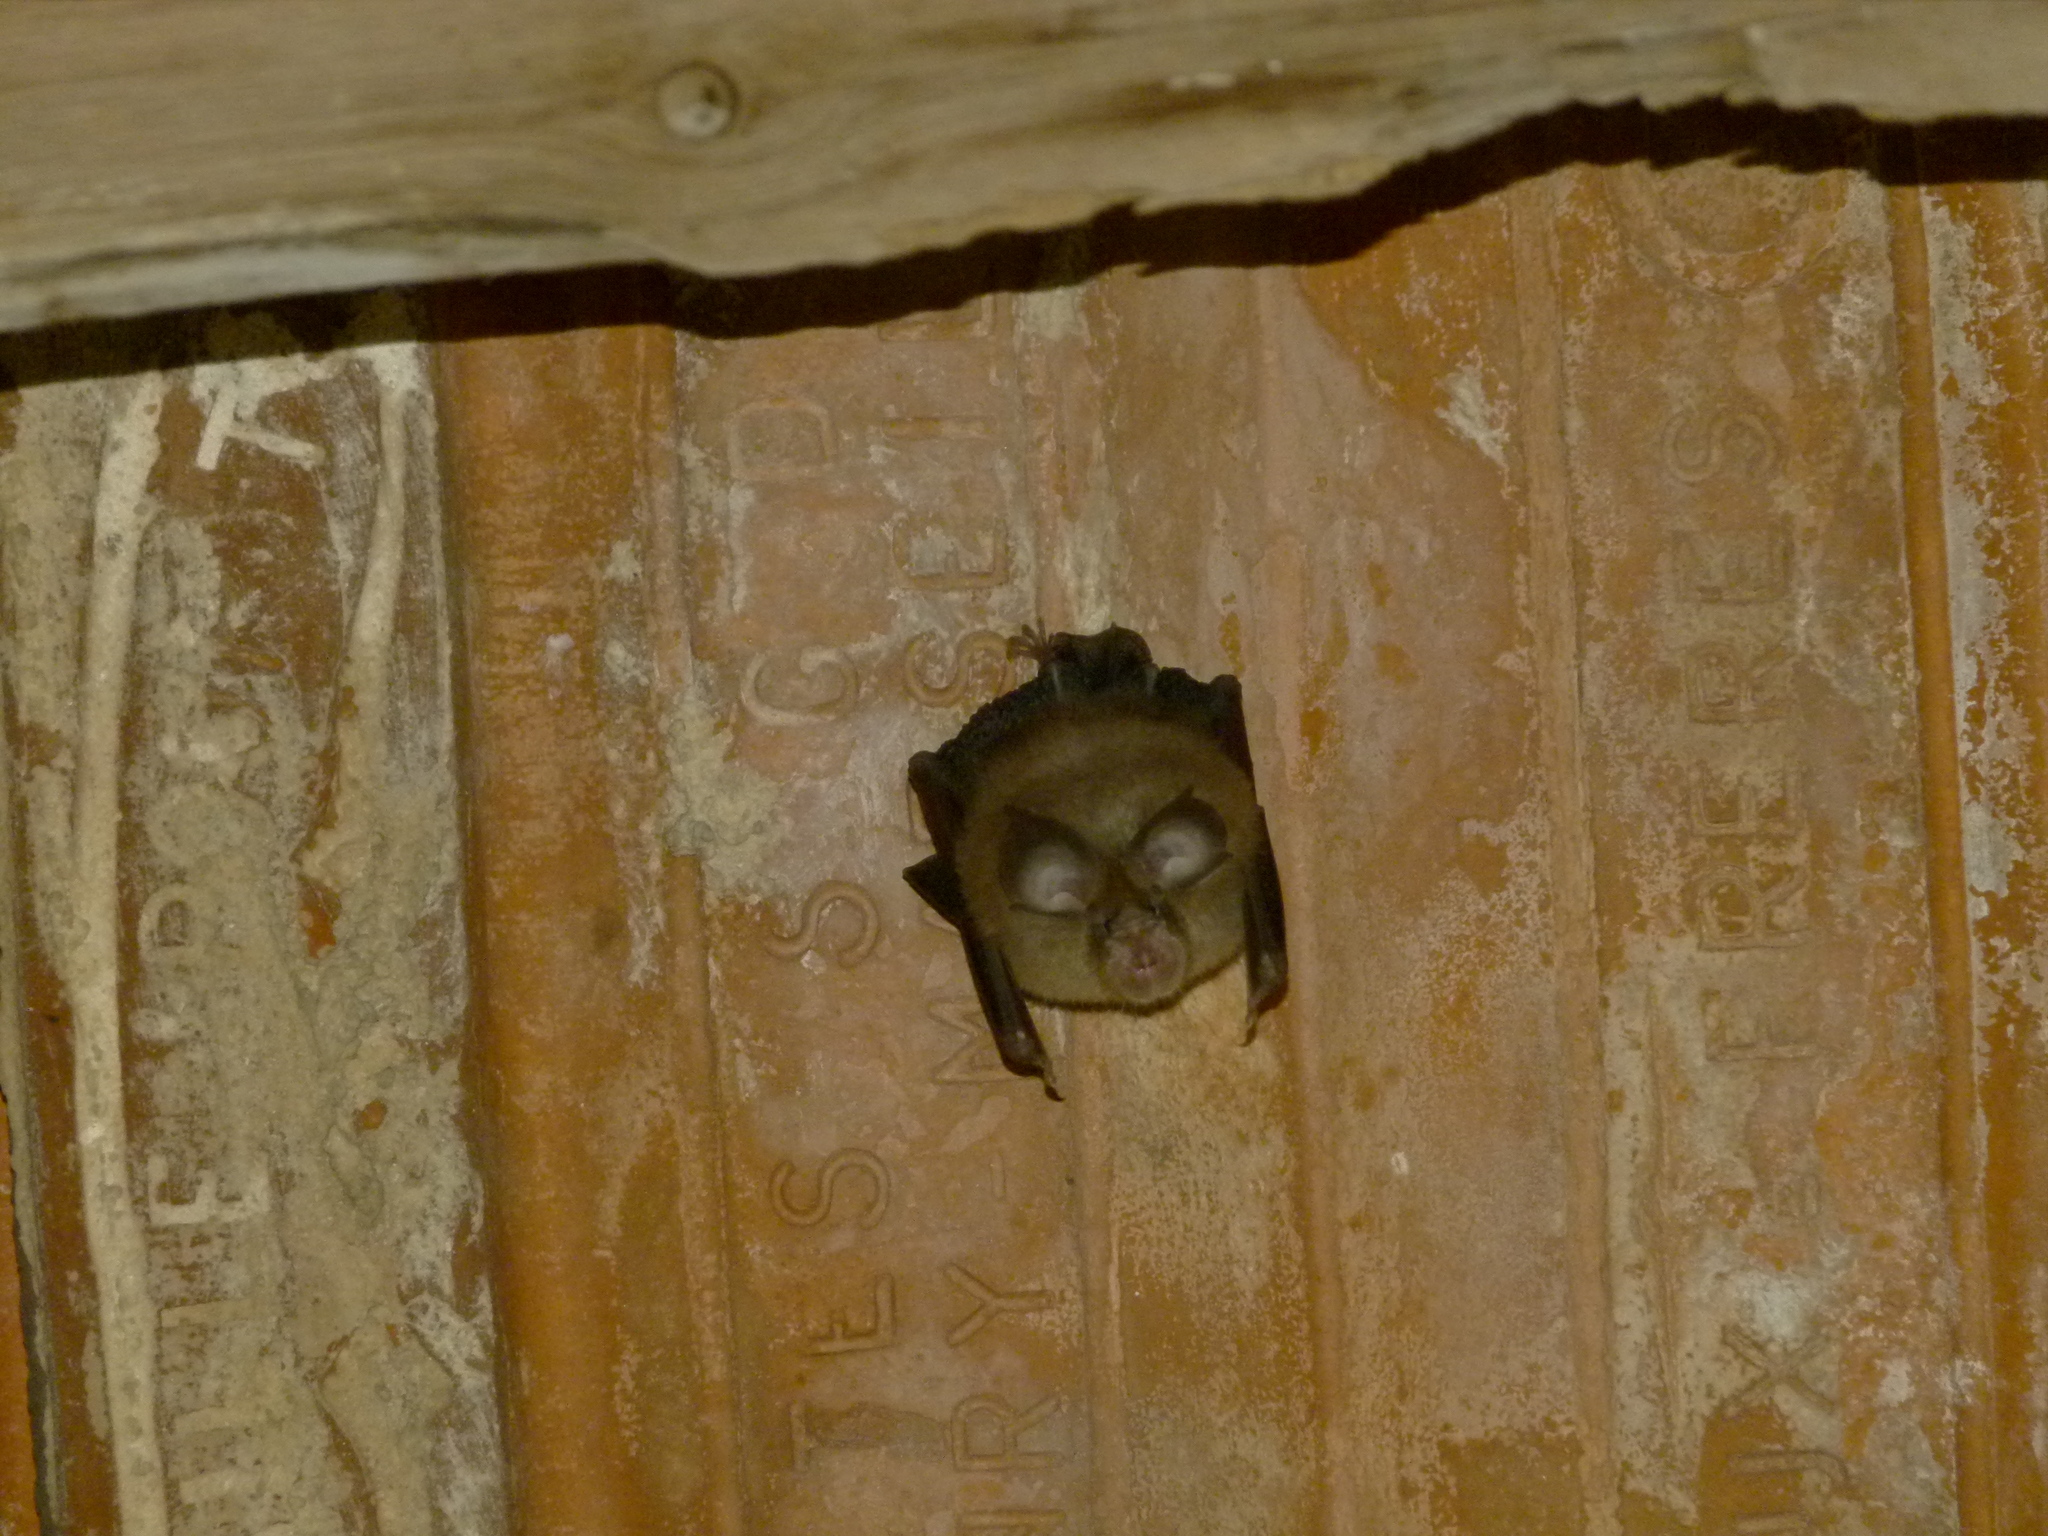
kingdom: Animalia
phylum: Chordata
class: Mammalia
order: Chiroptera
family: Rhinolophidae
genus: Rhinolophus
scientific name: Rhinolophus hipposideros
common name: Lesser horseshoe bat
